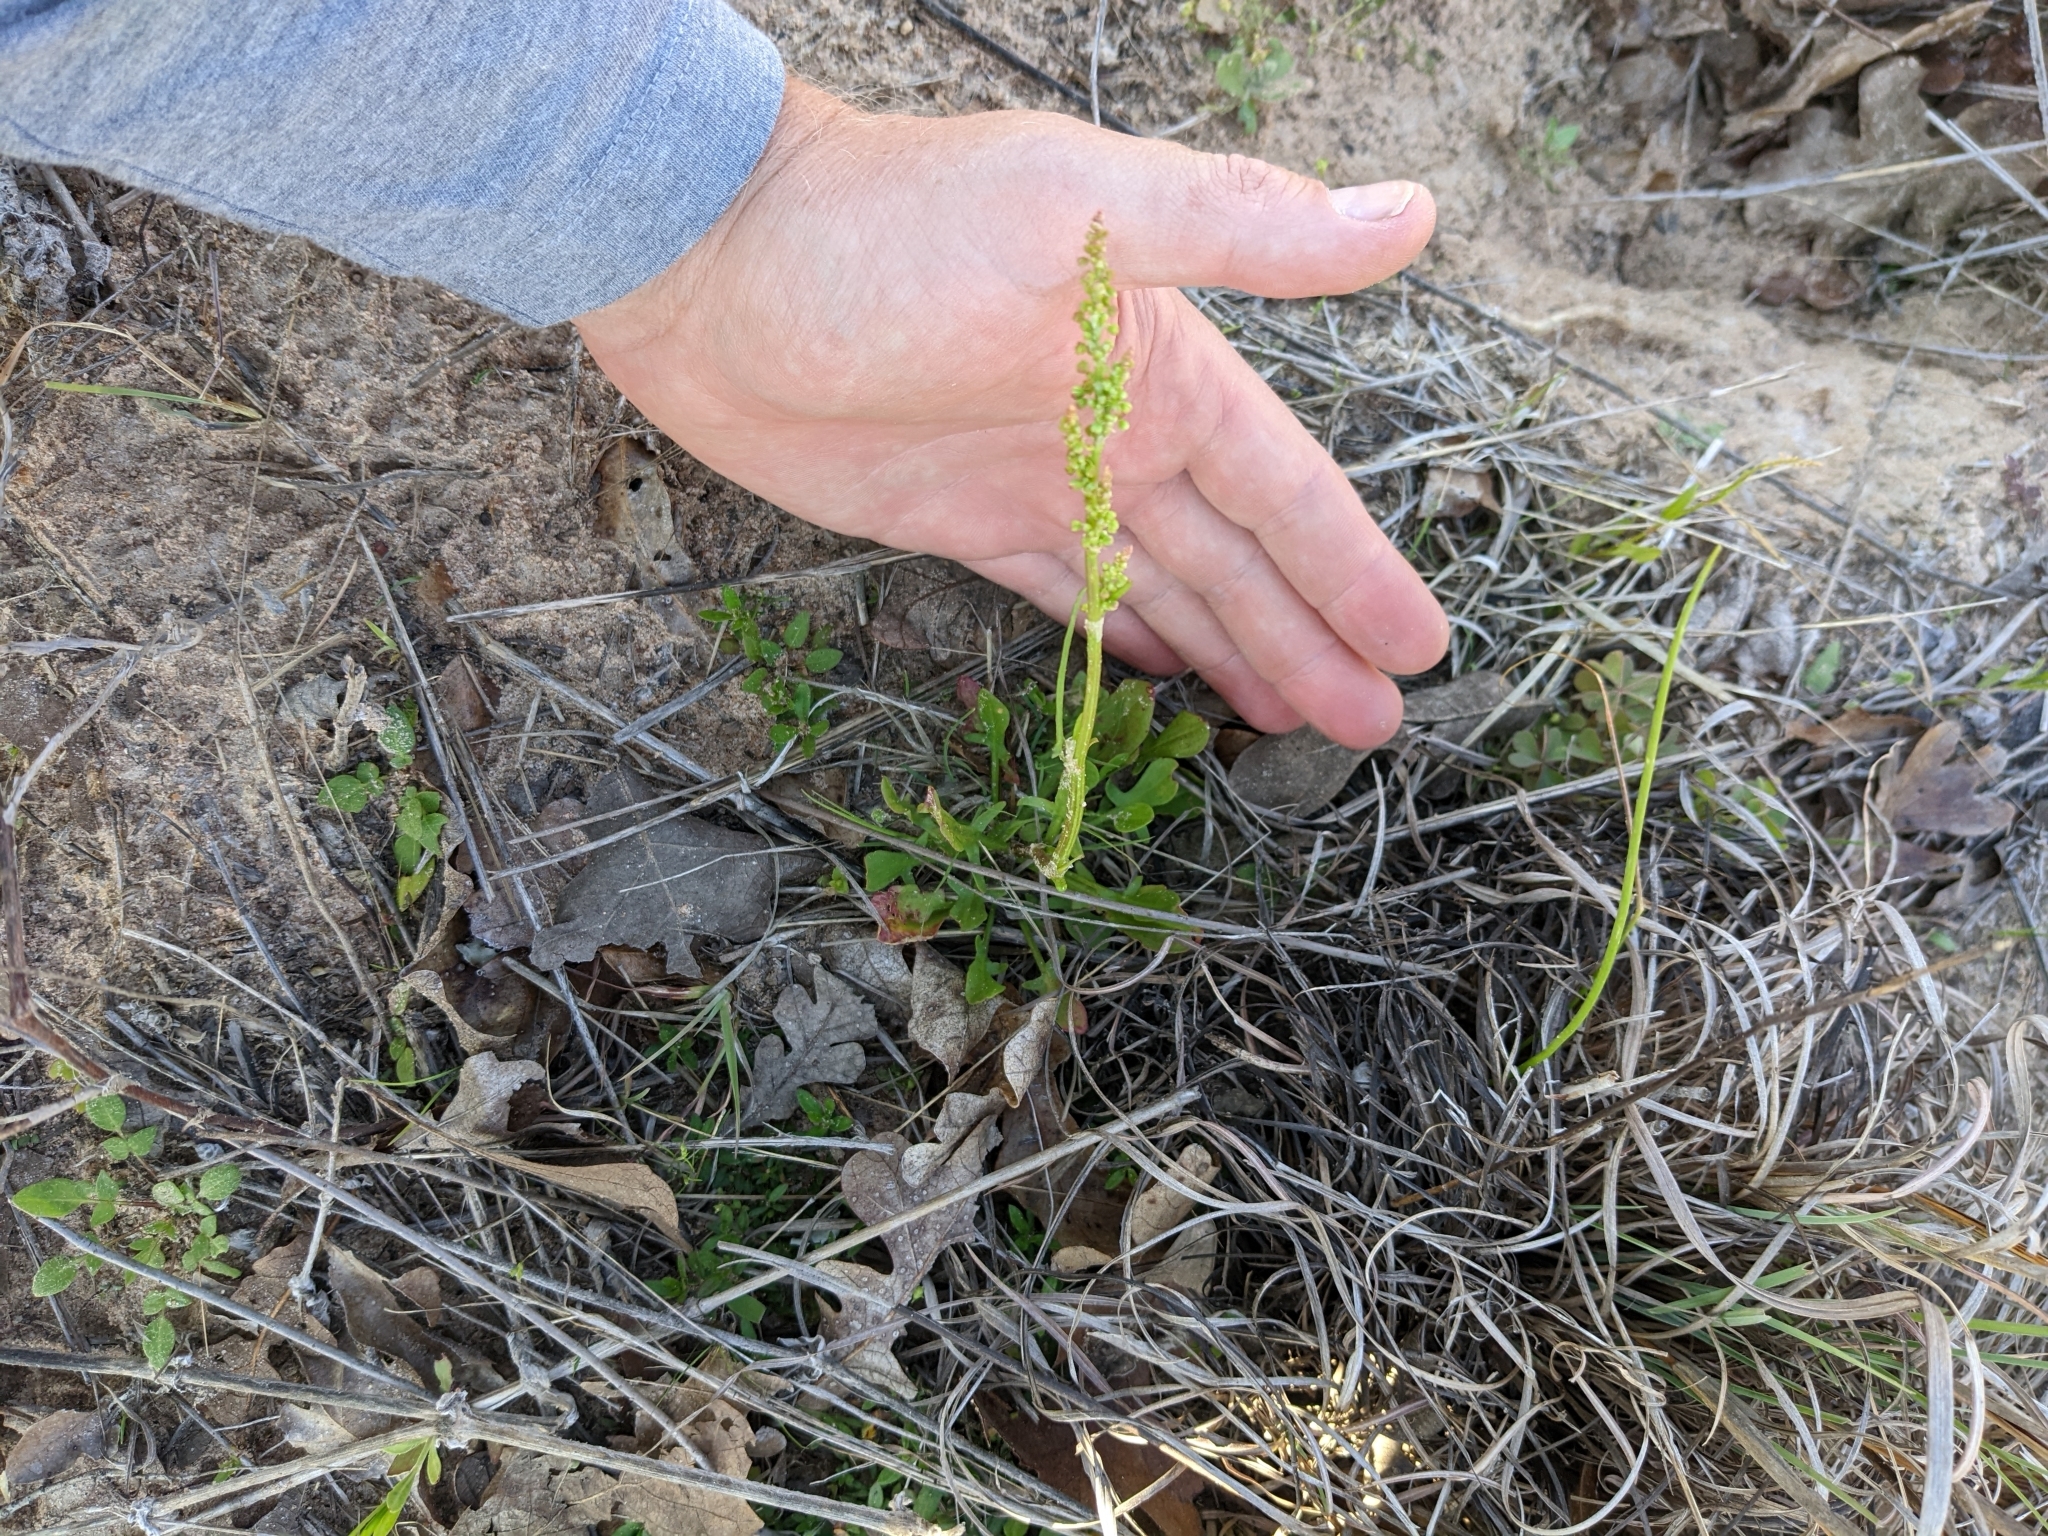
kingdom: Plantae
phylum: Tracheophyta
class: Magnoliopsida
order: Caryophyllales
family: Polygonaceae
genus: Rumex
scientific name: Rumex hastatulus
